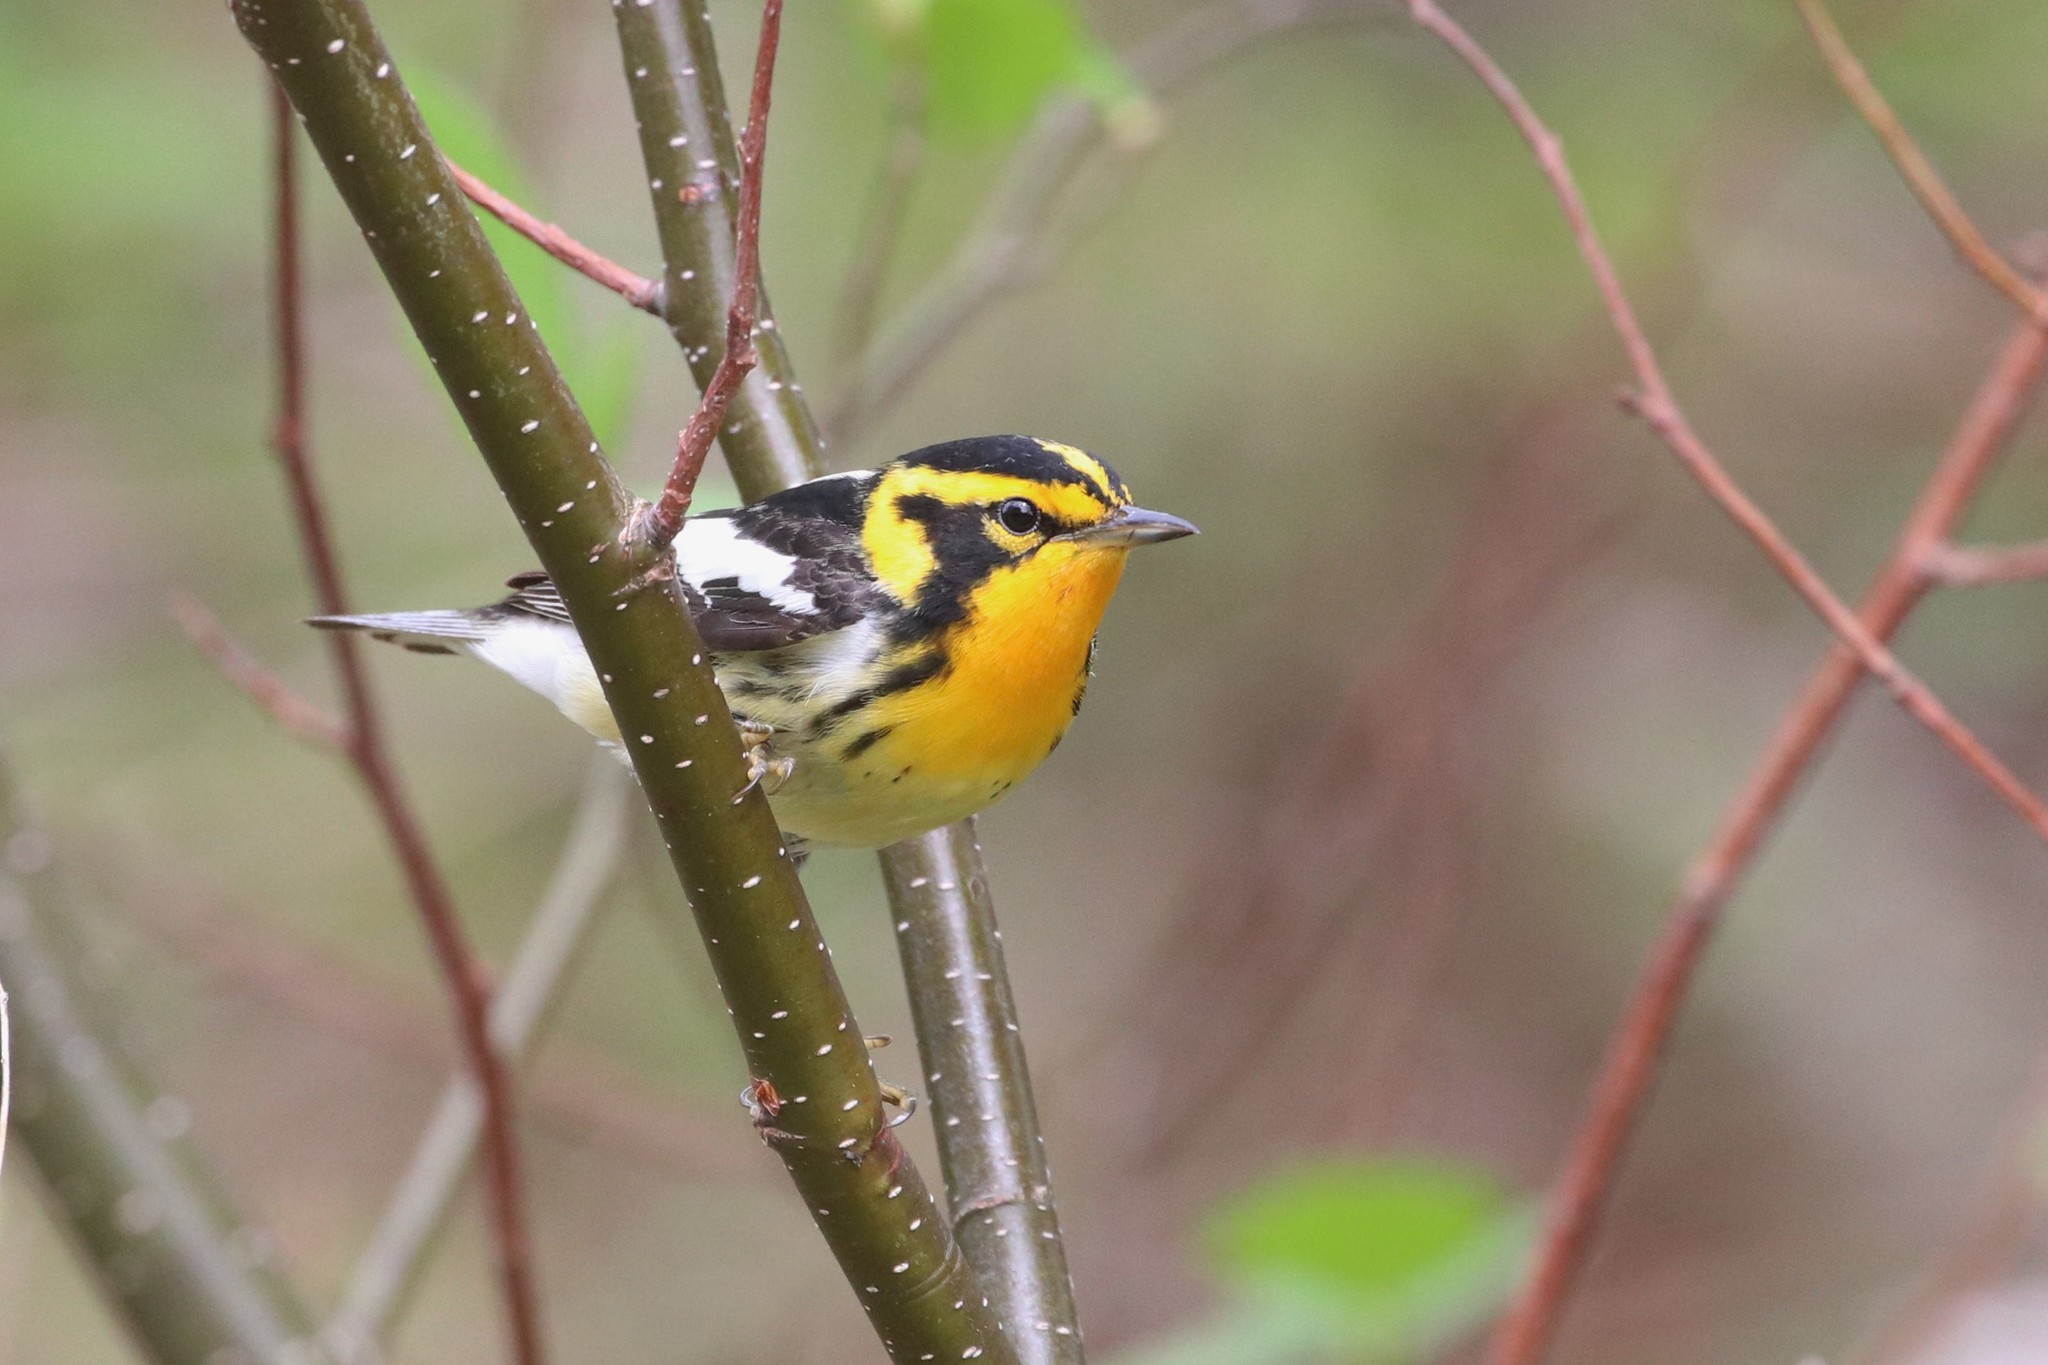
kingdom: Animalia
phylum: Chordata
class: Aves
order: Passeriformes
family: Parulidae
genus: Setophaga
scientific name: Setophaga fusca
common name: Blackburnian warbler
